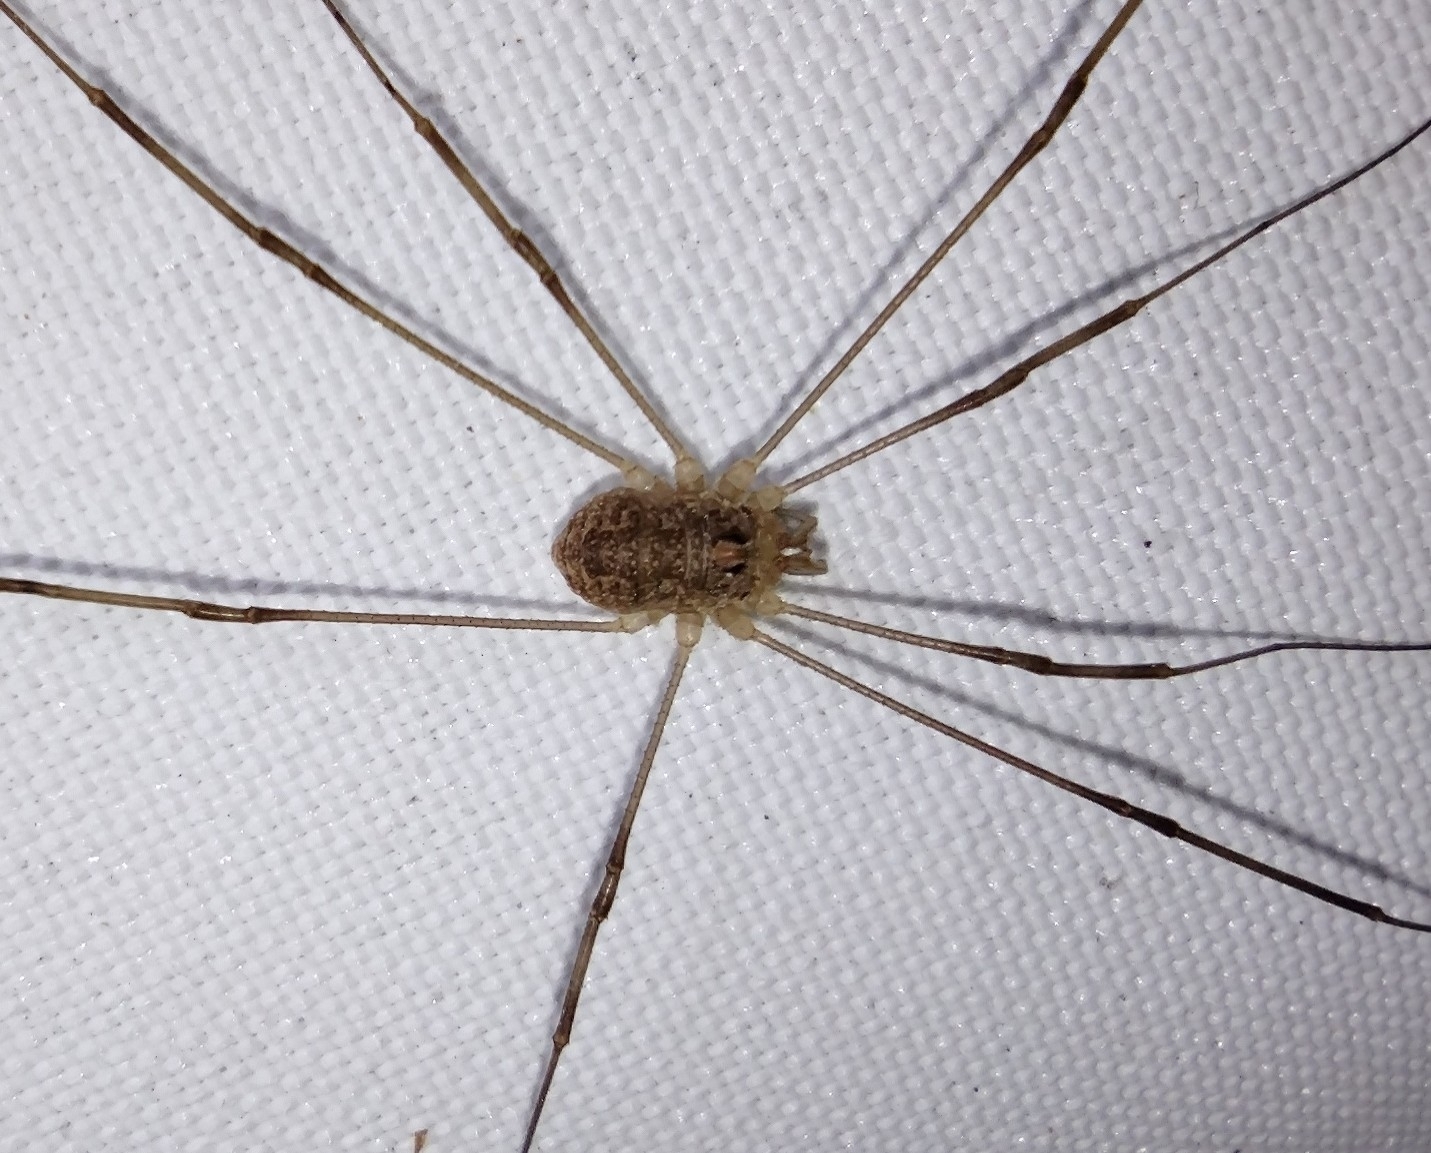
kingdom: Animalia
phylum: Arthropoda
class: Arachnida
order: Opiliones
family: Phalangiidae
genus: Rilaena
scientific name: Rilaena triangularis
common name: Spring harvestman
